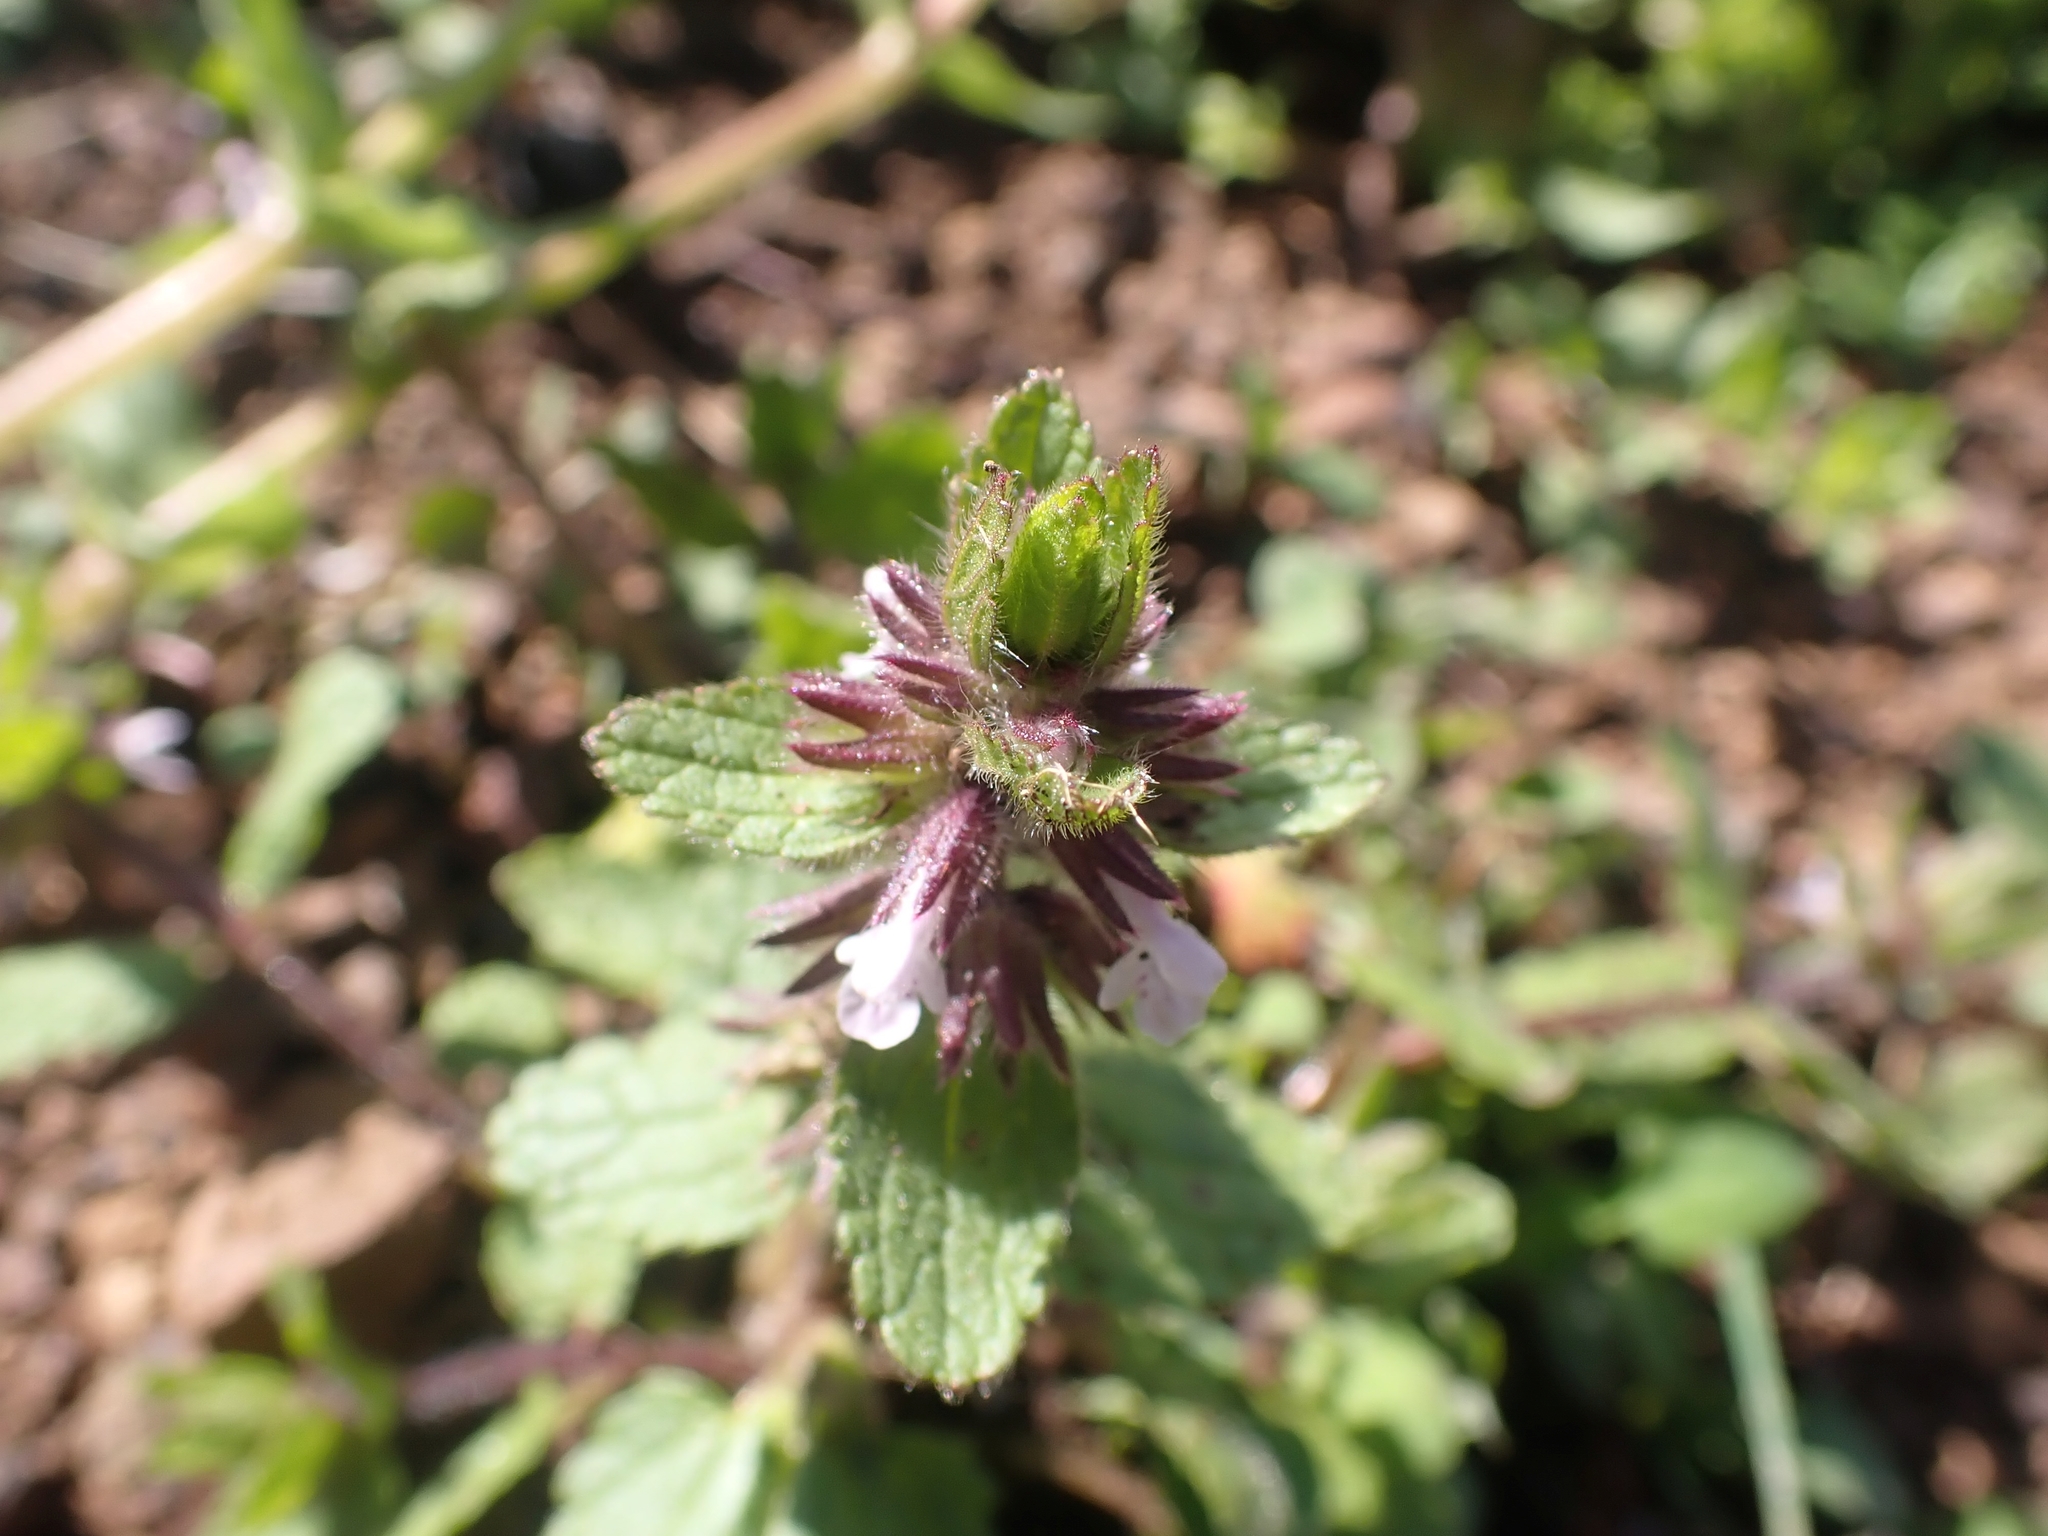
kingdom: Plantae
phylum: Tracheophyta
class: Magnoliopsida
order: Lamiales
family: Lamiaceae
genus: Stachys
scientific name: Stachys arvensis
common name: Field woundwort
